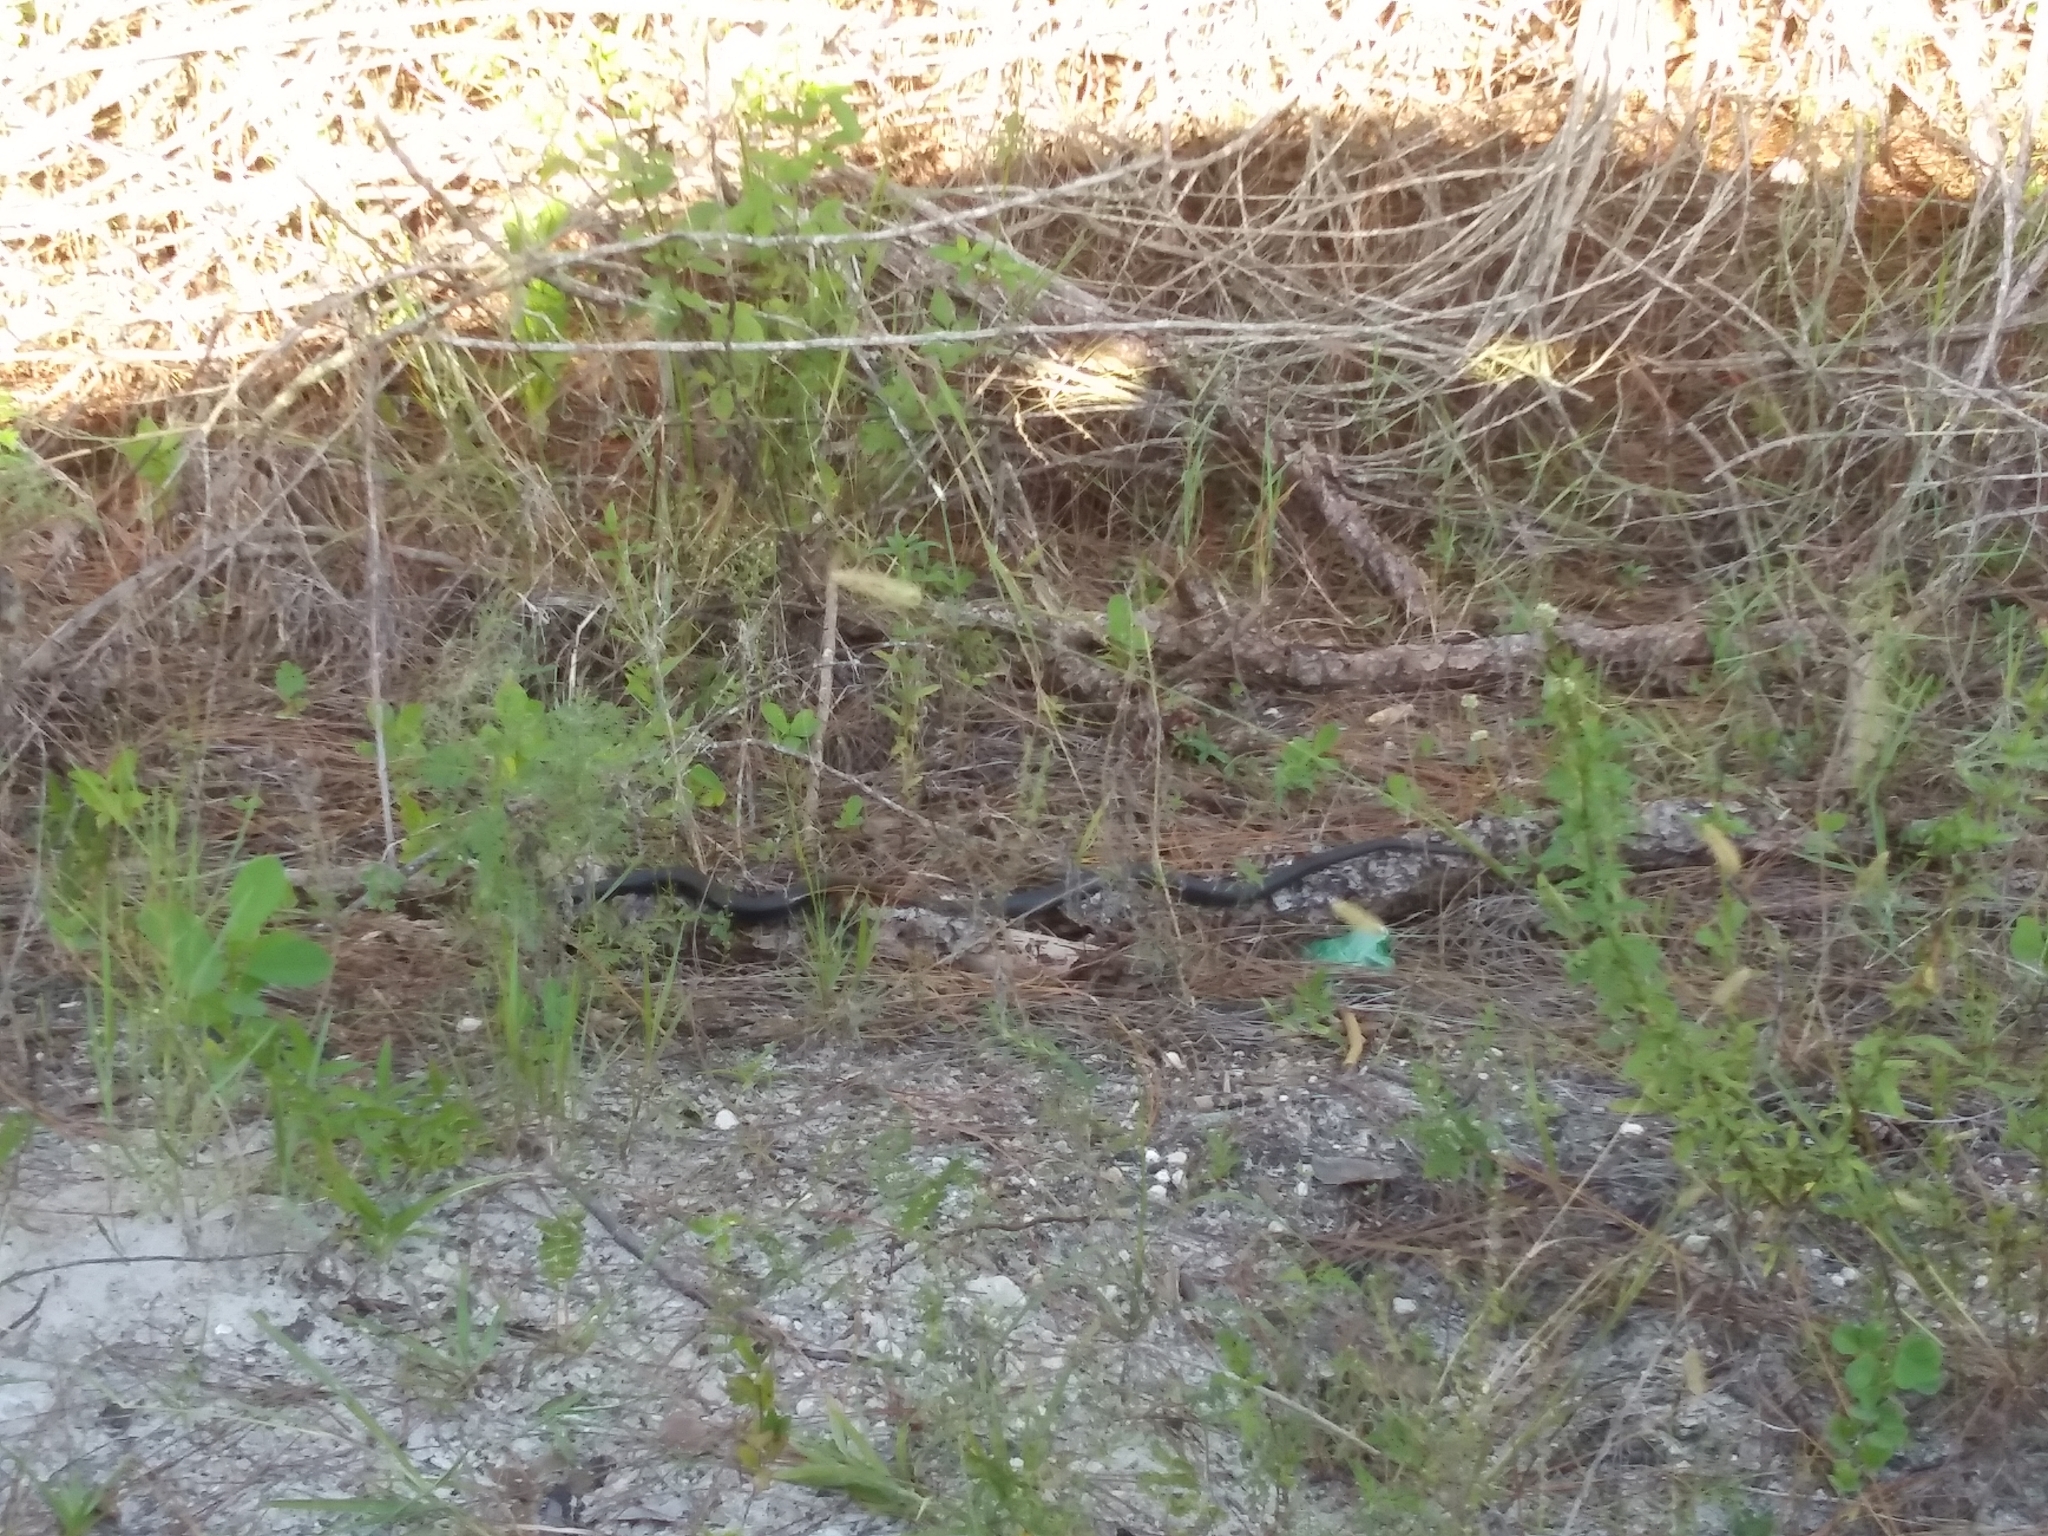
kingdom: Animalia
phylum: Chordata
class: Squamata
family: Colubridae
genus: Coluber
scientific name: Coluber constrictor
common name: Eastern racer
